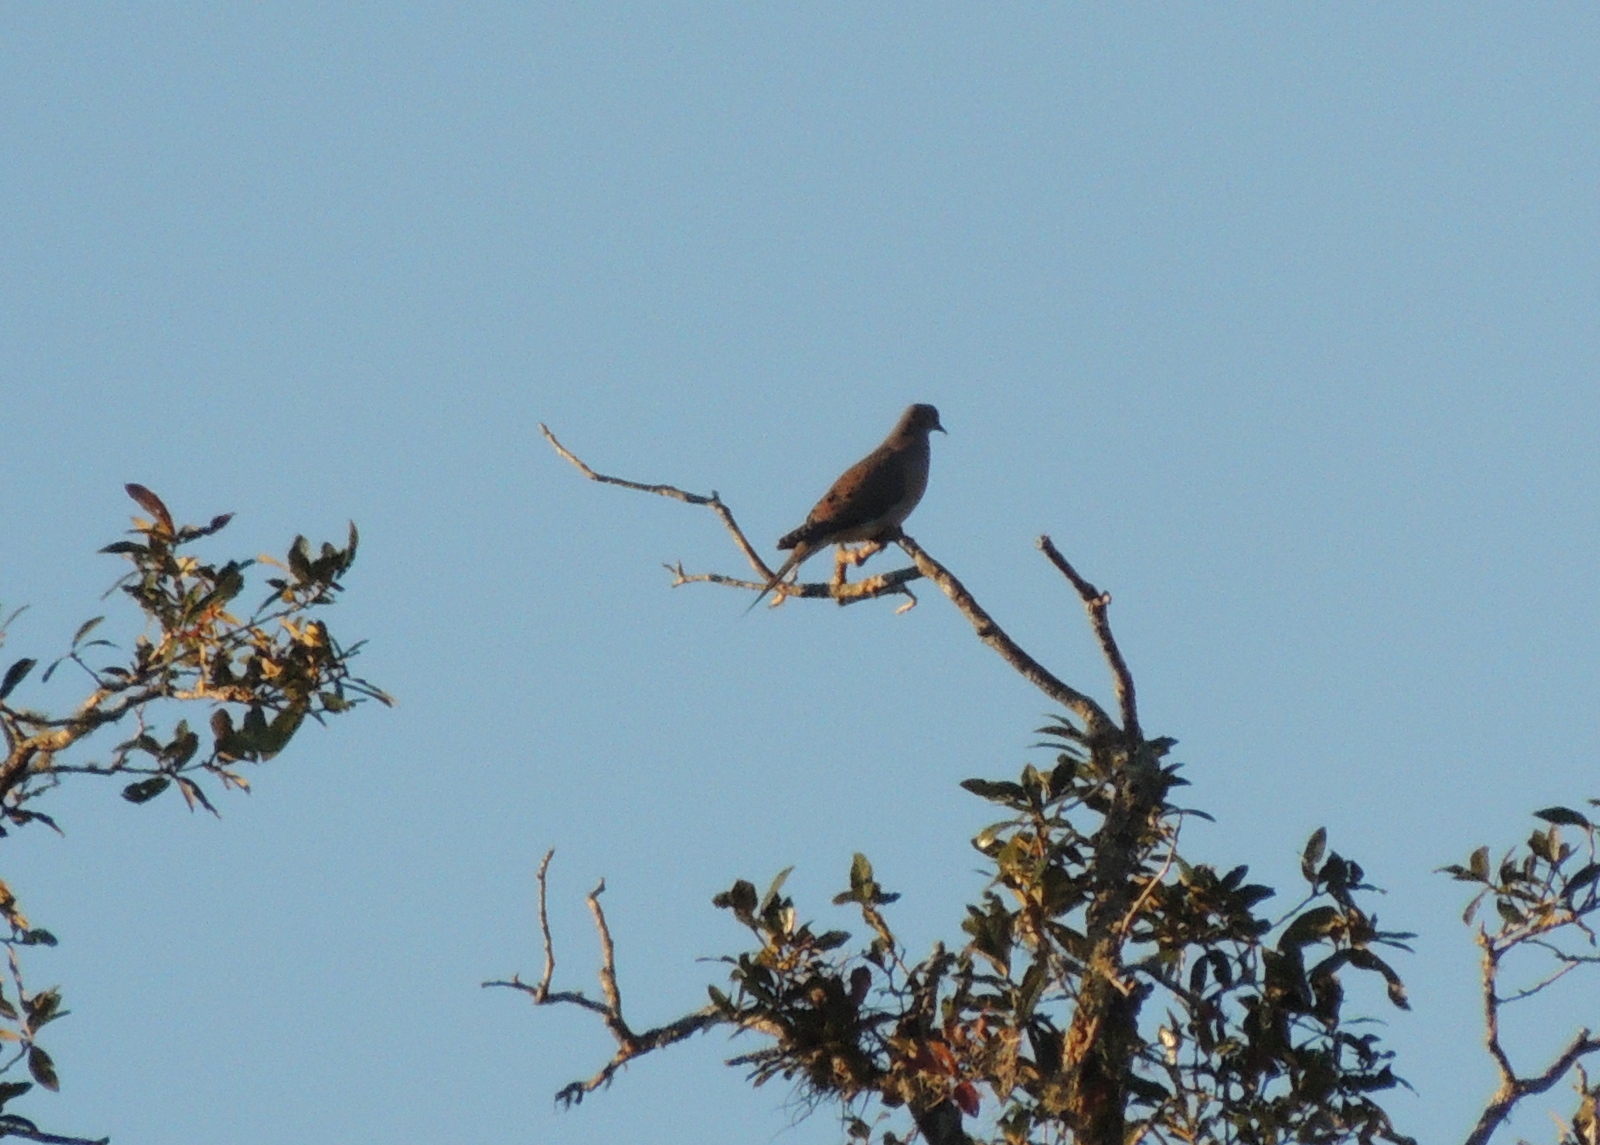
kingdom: Animalia
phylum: Chordata
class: Aves
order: Columbiformes
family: Columbidae
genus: Zenaida
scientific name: Zenaida macroura
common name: Mourning dove
